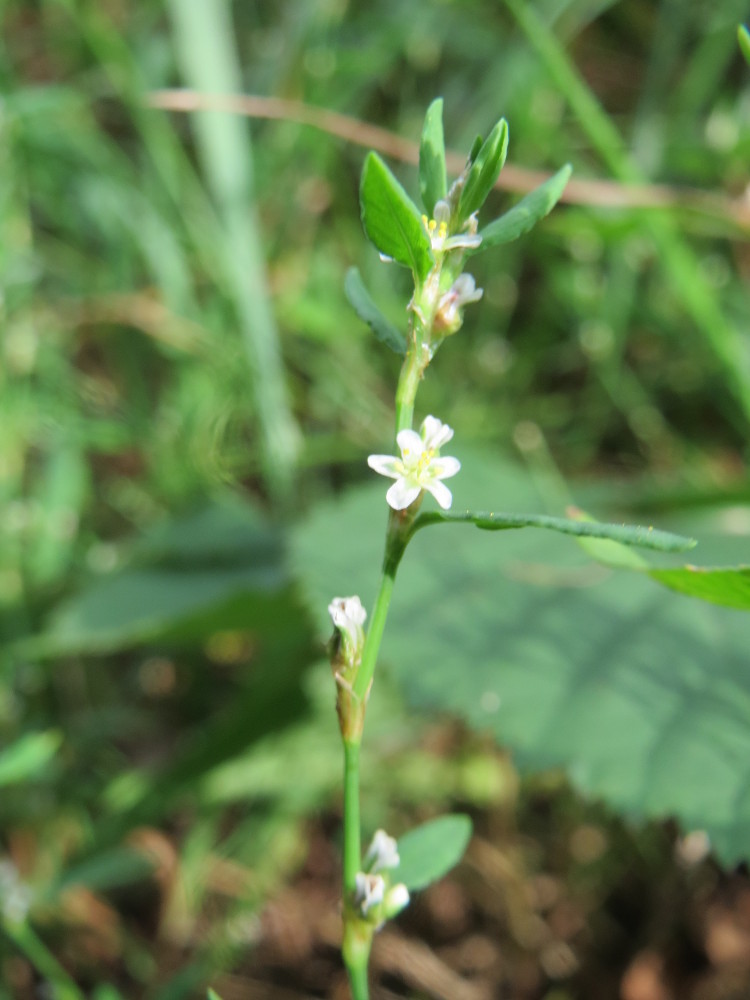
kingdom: Plantae
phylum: Tracheophyta
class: Magnoliopsida
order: Caryophyllales
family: Polygonaceae
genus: Polygonum
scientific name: Polygonum aviculare
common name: Prostrate knotweed
